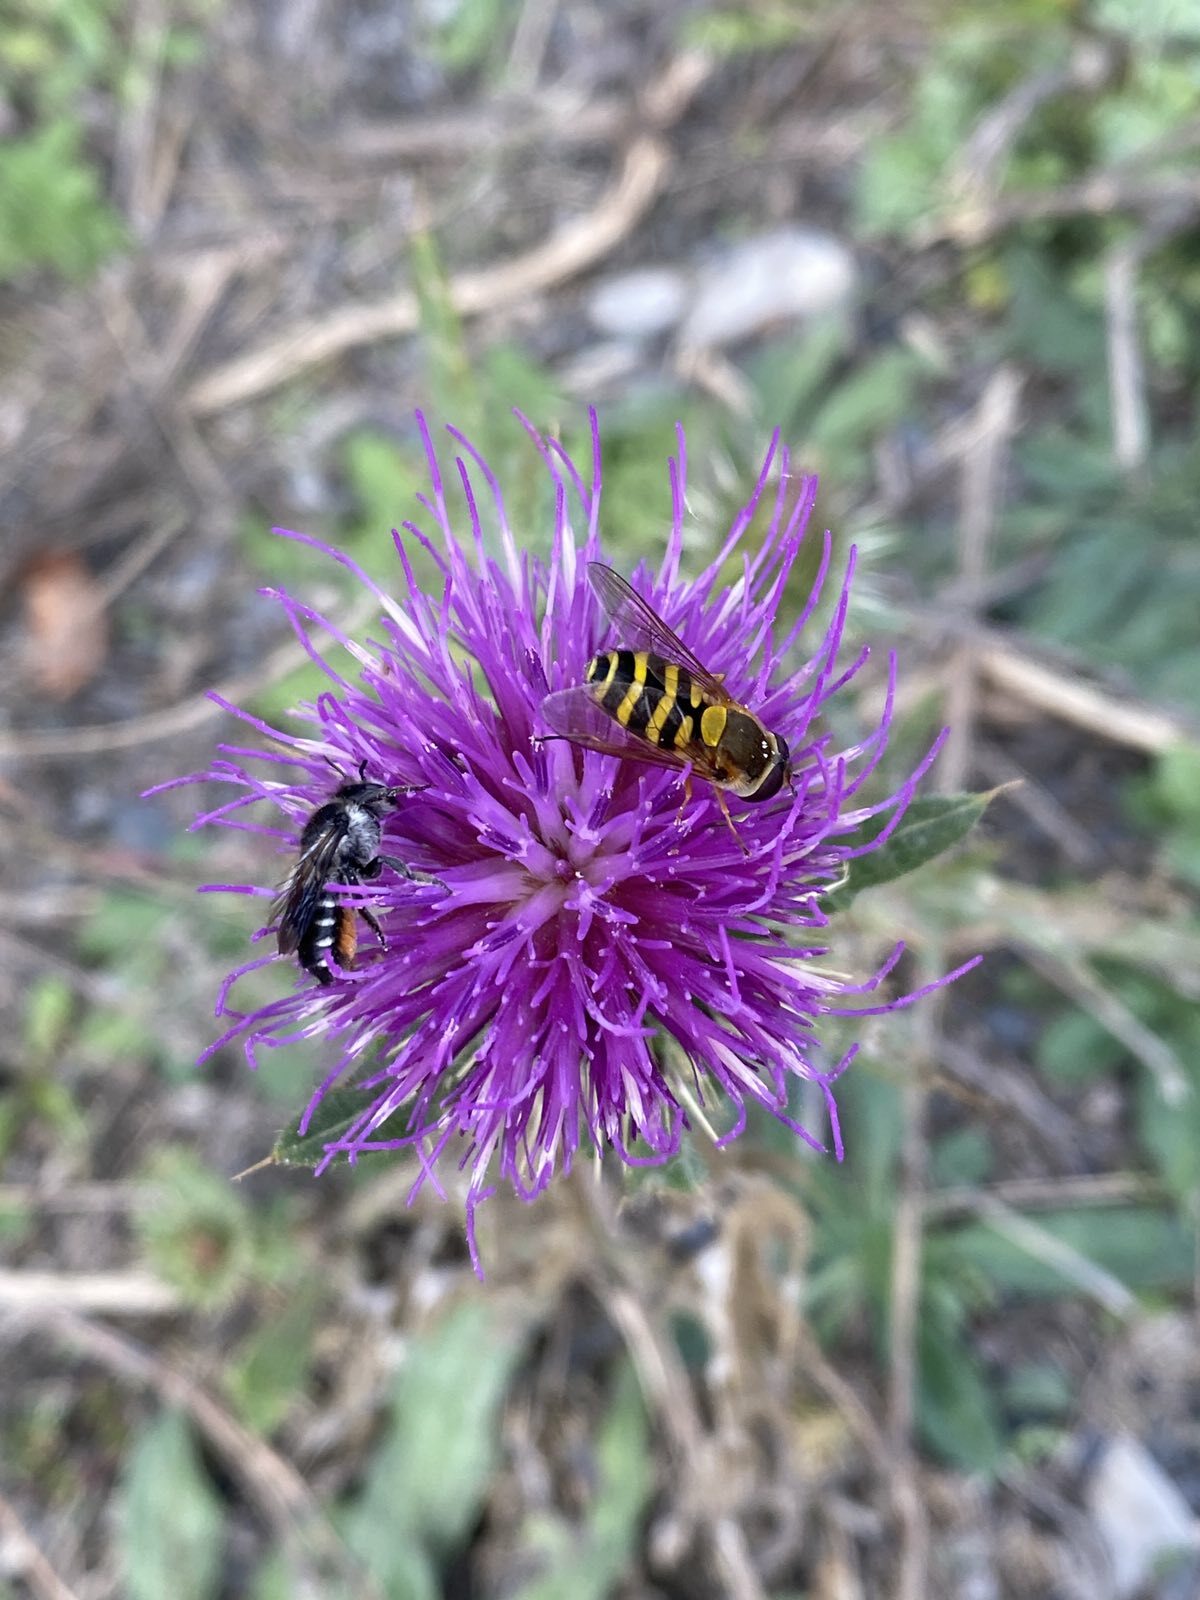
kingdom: Animalia
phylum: Arthropoda
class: Insecta
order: Diptera
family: Syrphidae
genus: Syrphus
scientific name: Syrphus
